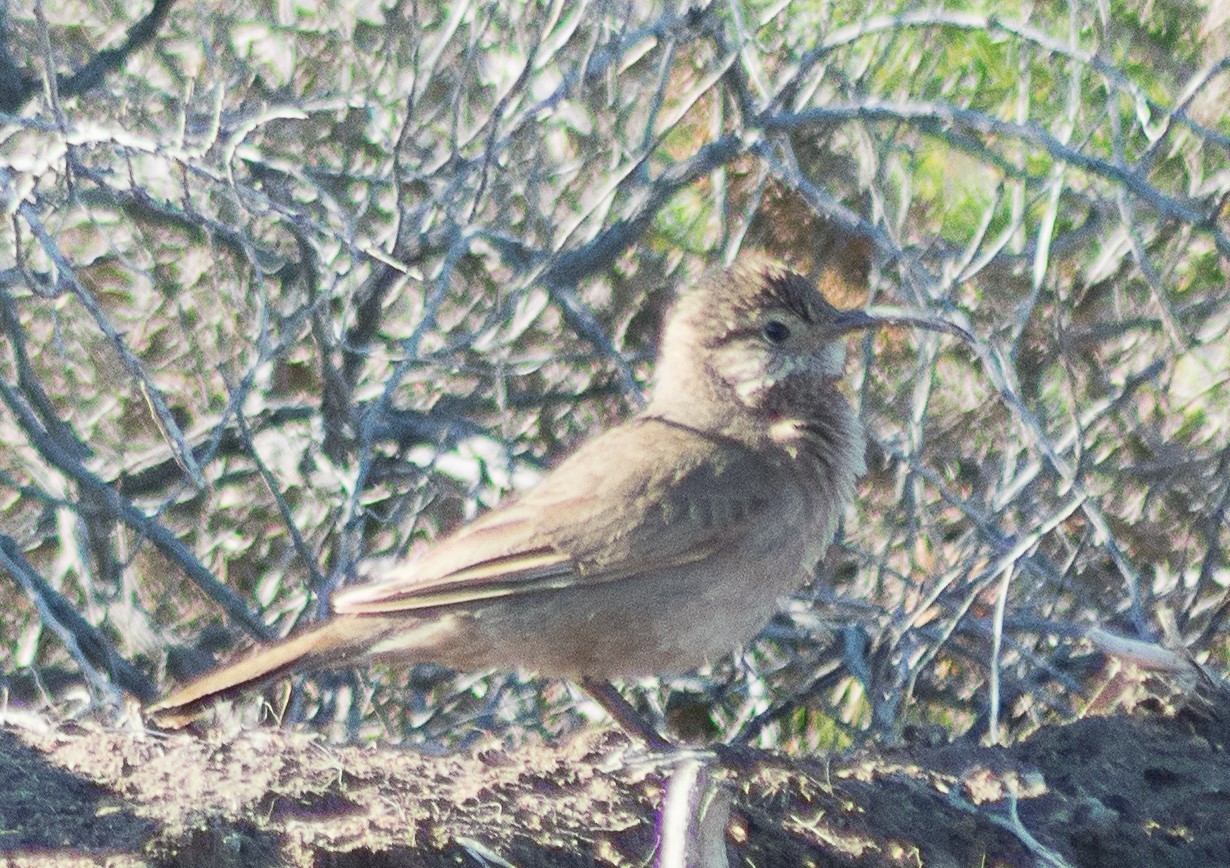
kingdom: Animalia
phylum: Chordata
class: Aves
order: Passeriformes
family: Furnariidae
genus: Upucerthia
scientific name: Upucerthia dumetaria
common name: Scale-throated earthcreeper
